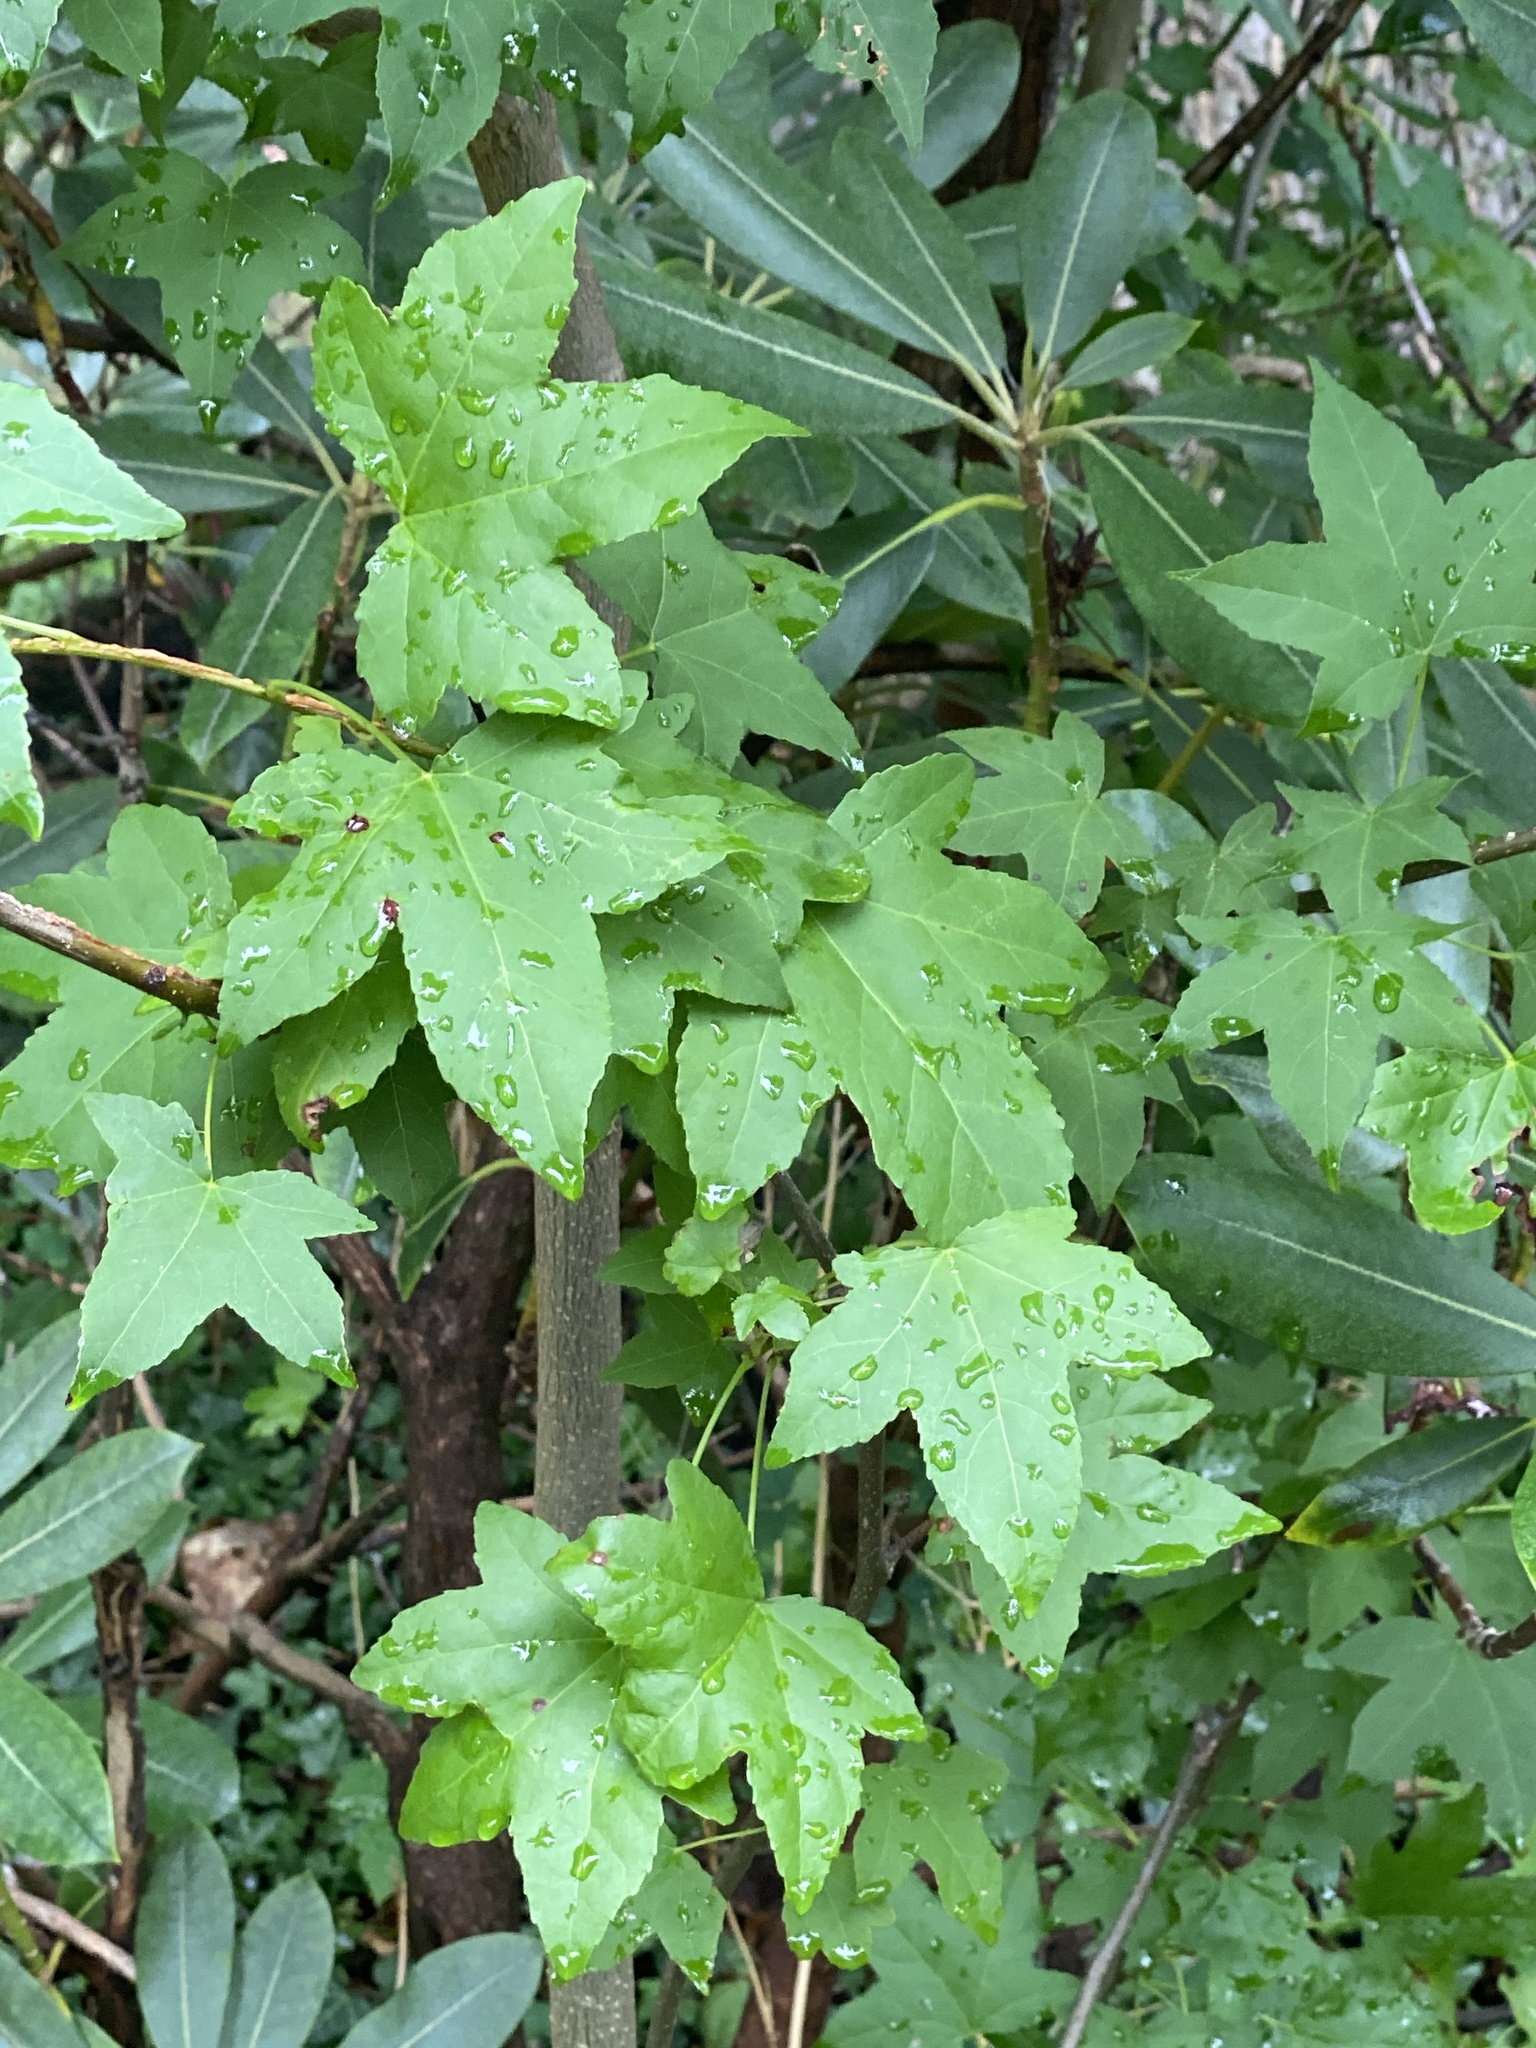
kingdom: Plantae
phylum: Tracheophyta
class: Magnoliopsida
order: Saxifragales
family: Altingiaceae
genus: Liquidambar
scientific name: Liquidambar styraciflua
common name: Sweet gum
